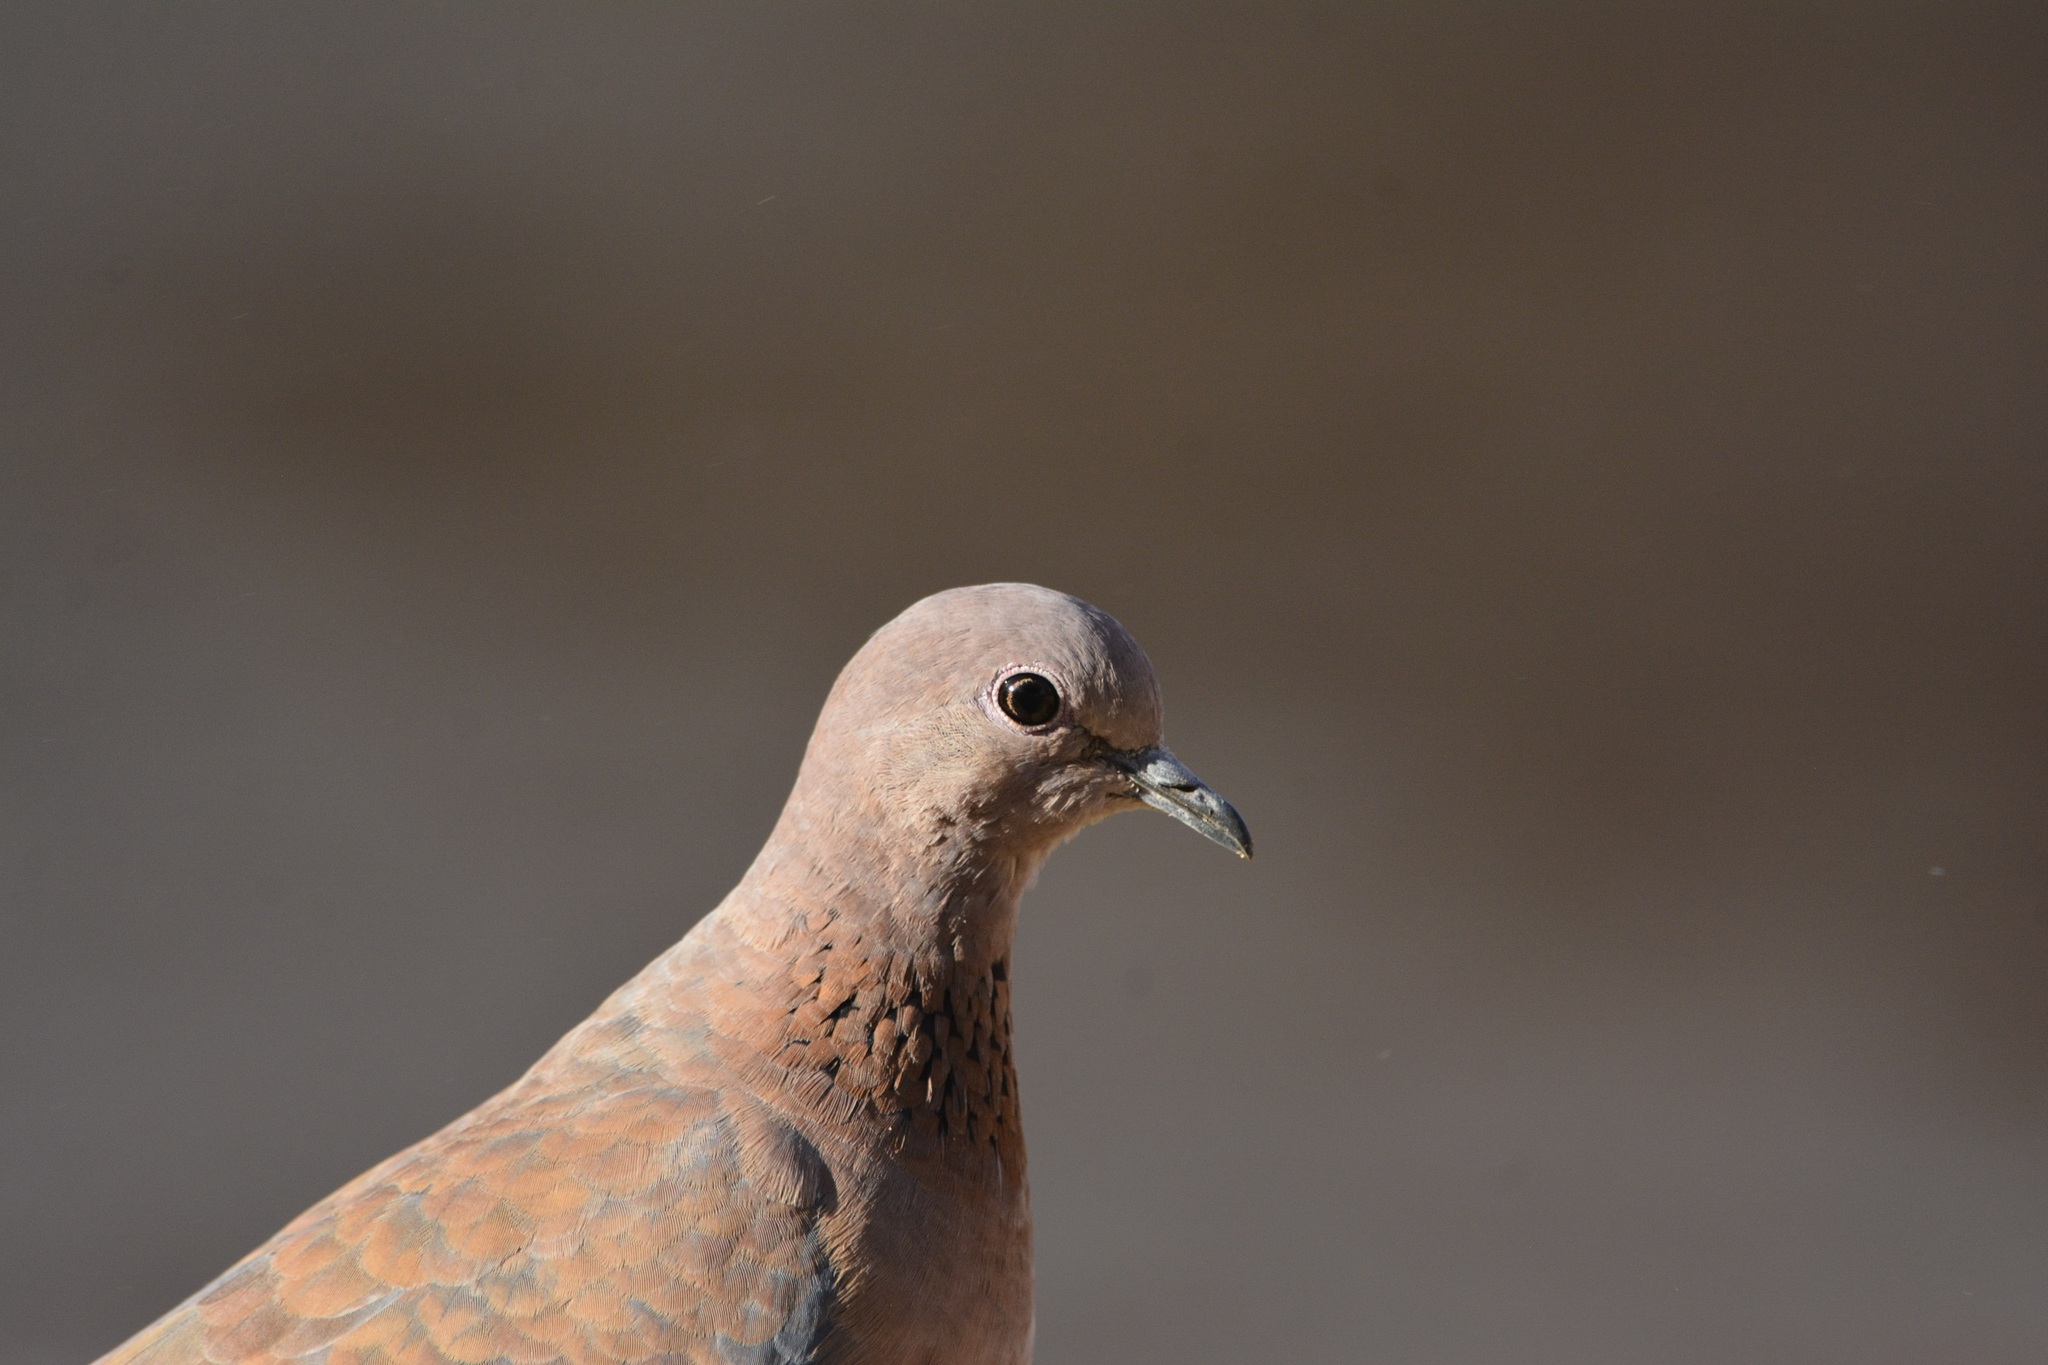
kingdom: Animalia
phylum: Chordata
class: Aves
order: Columbiformes
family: Columbidae
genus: Spilopelia
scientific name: Spilopelia senegalensis
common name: Laughing dove
